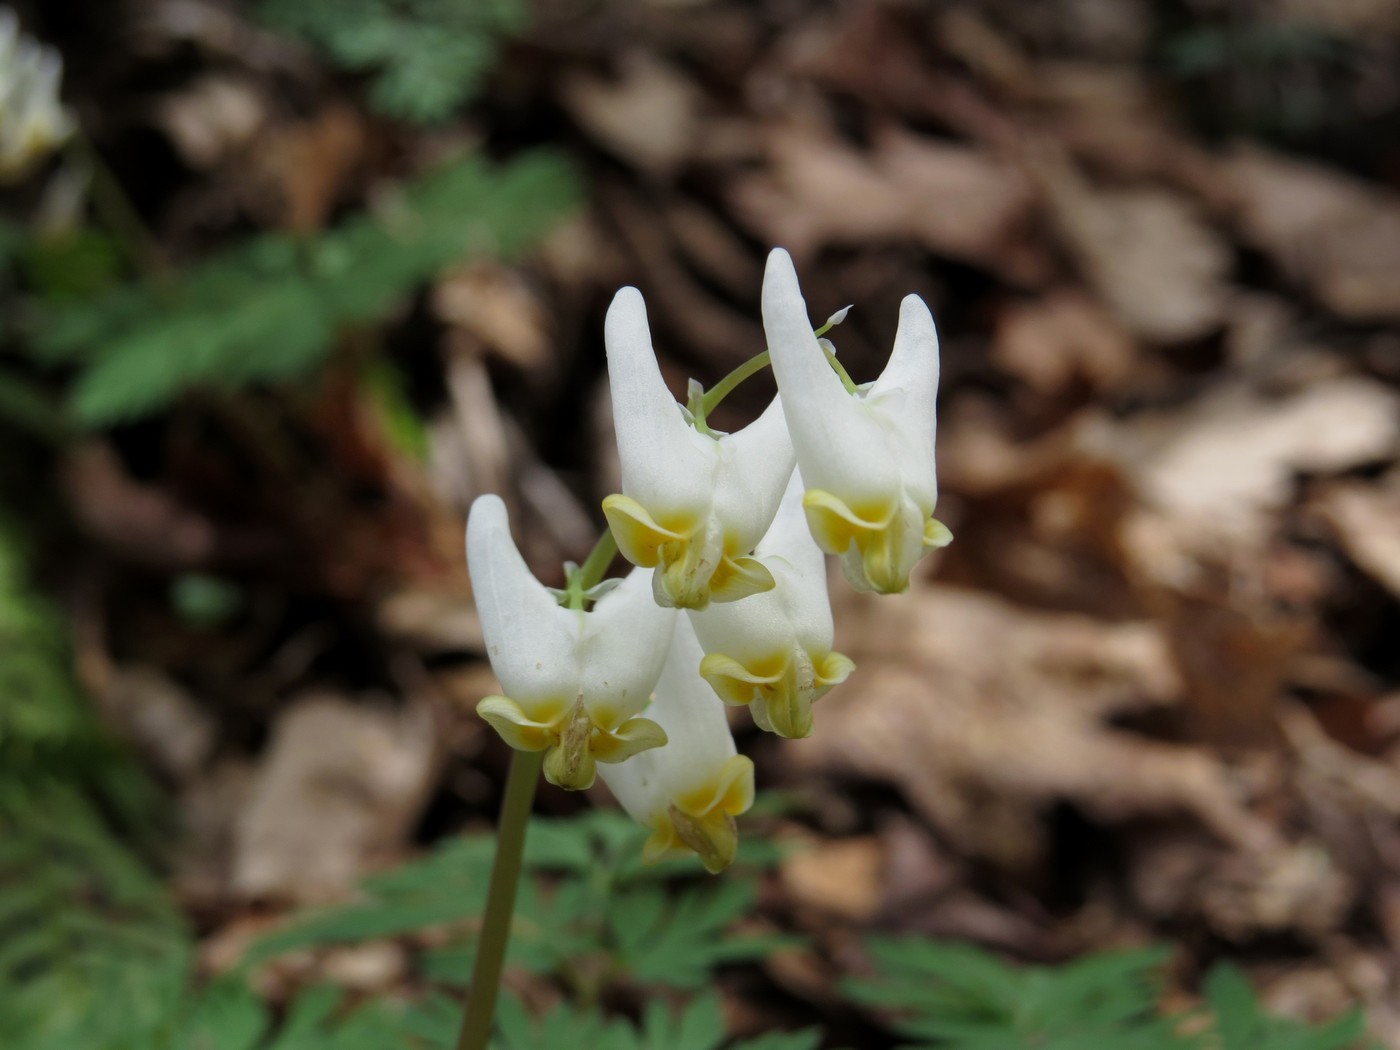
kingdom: Plantae
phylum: Tracheophyta
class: Magnoliopsida
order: Ranunculales
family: Papaveraceae
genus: Dicentra
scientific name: Dicentra cucullaria
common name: Dutchman's breeches
